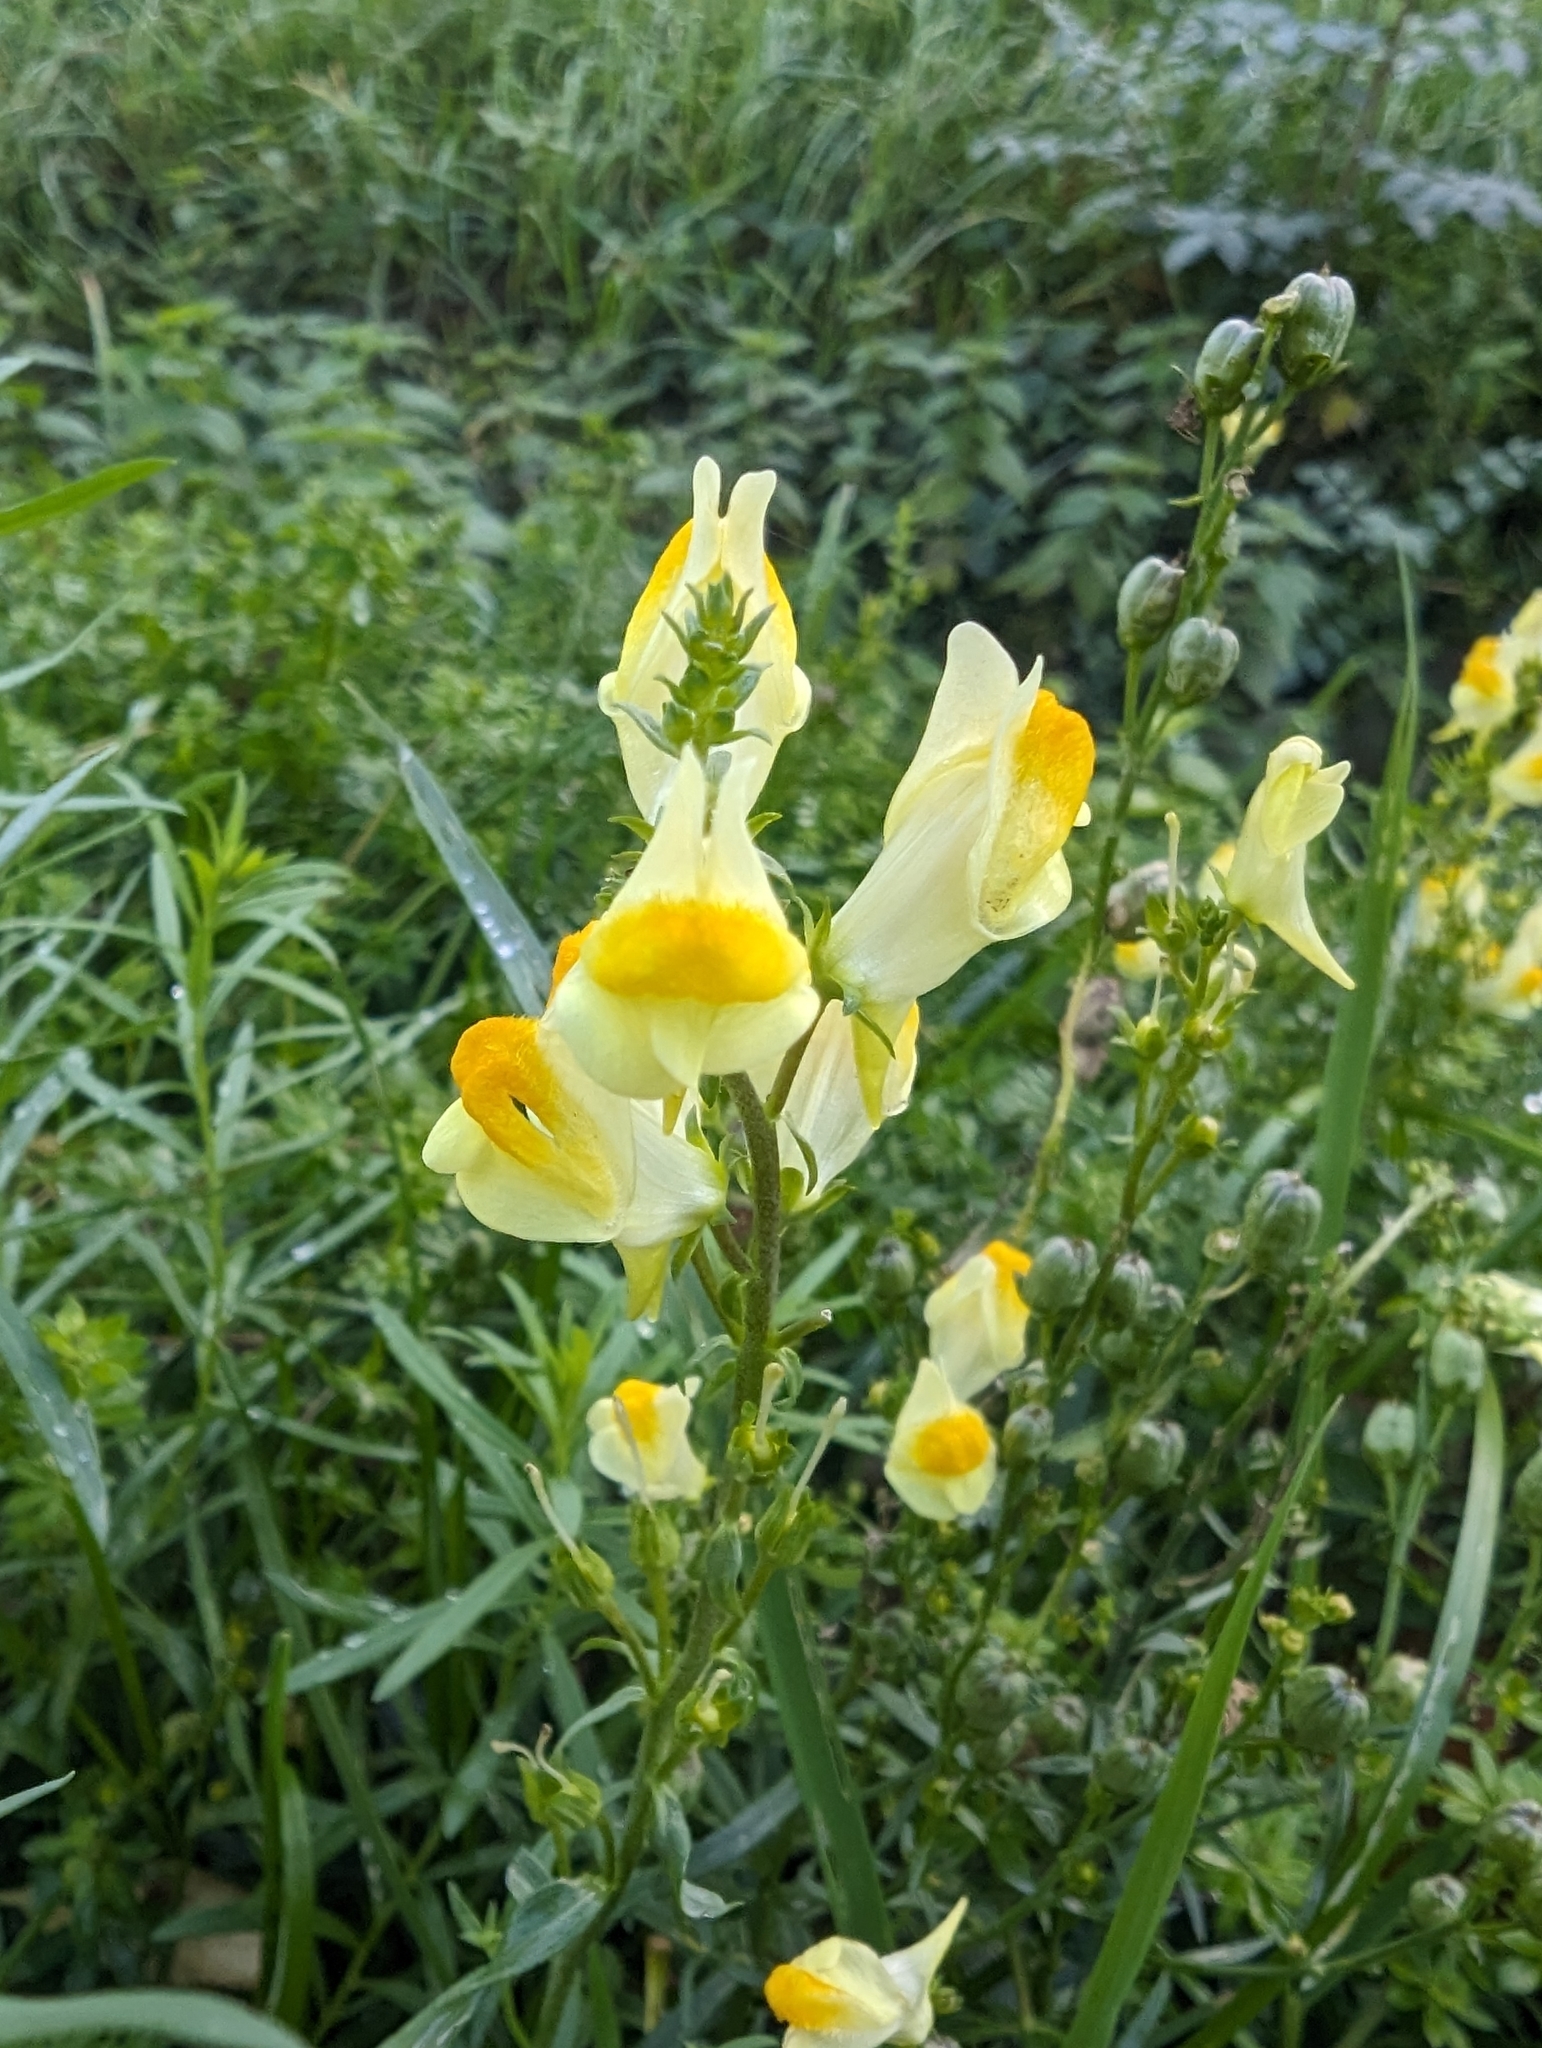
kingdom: Plantae
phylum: Tracheophyta
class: Magnoliopsida
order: Lamiales
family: Plantaginaceae
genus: Linaria
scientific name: Linaria vulgaris
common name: Butter and eggs
